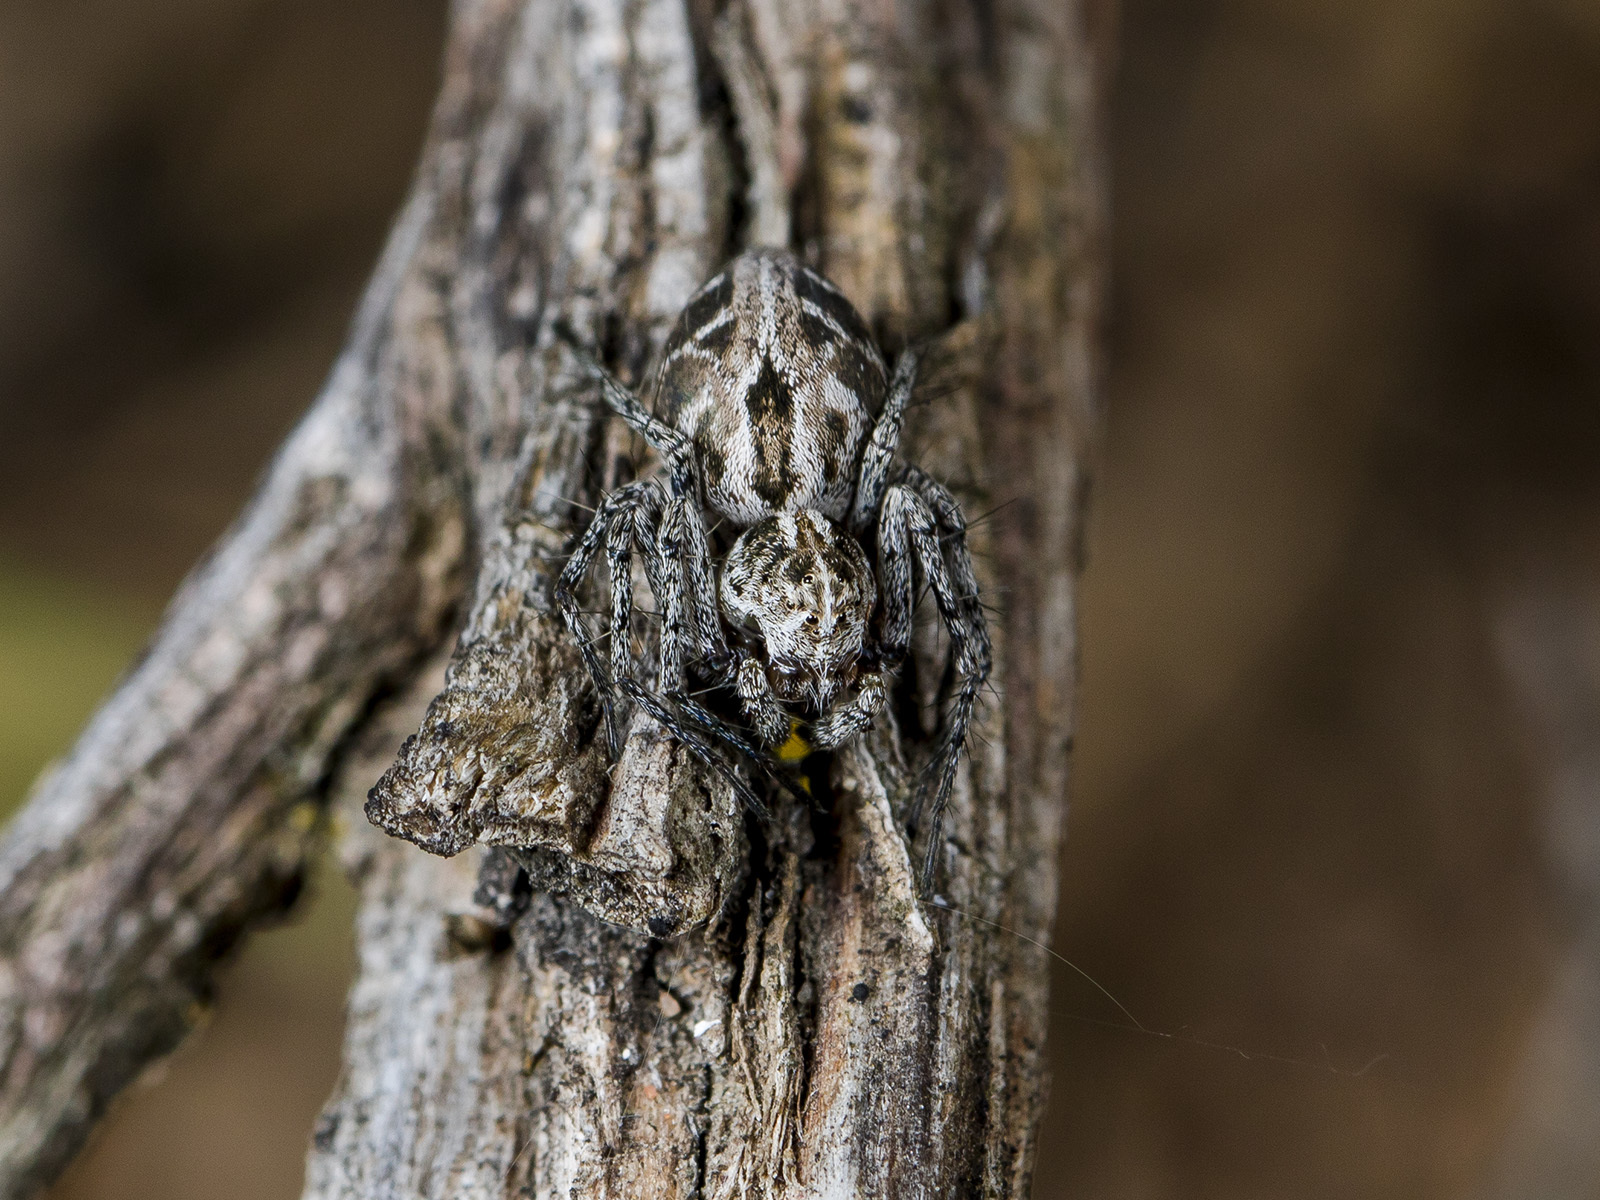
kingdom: Animalia
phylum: Arthropoda
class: Arachnida
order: Araneae
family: Oxyopidae
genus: Oxyopes
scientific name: Oxyopes takobius
